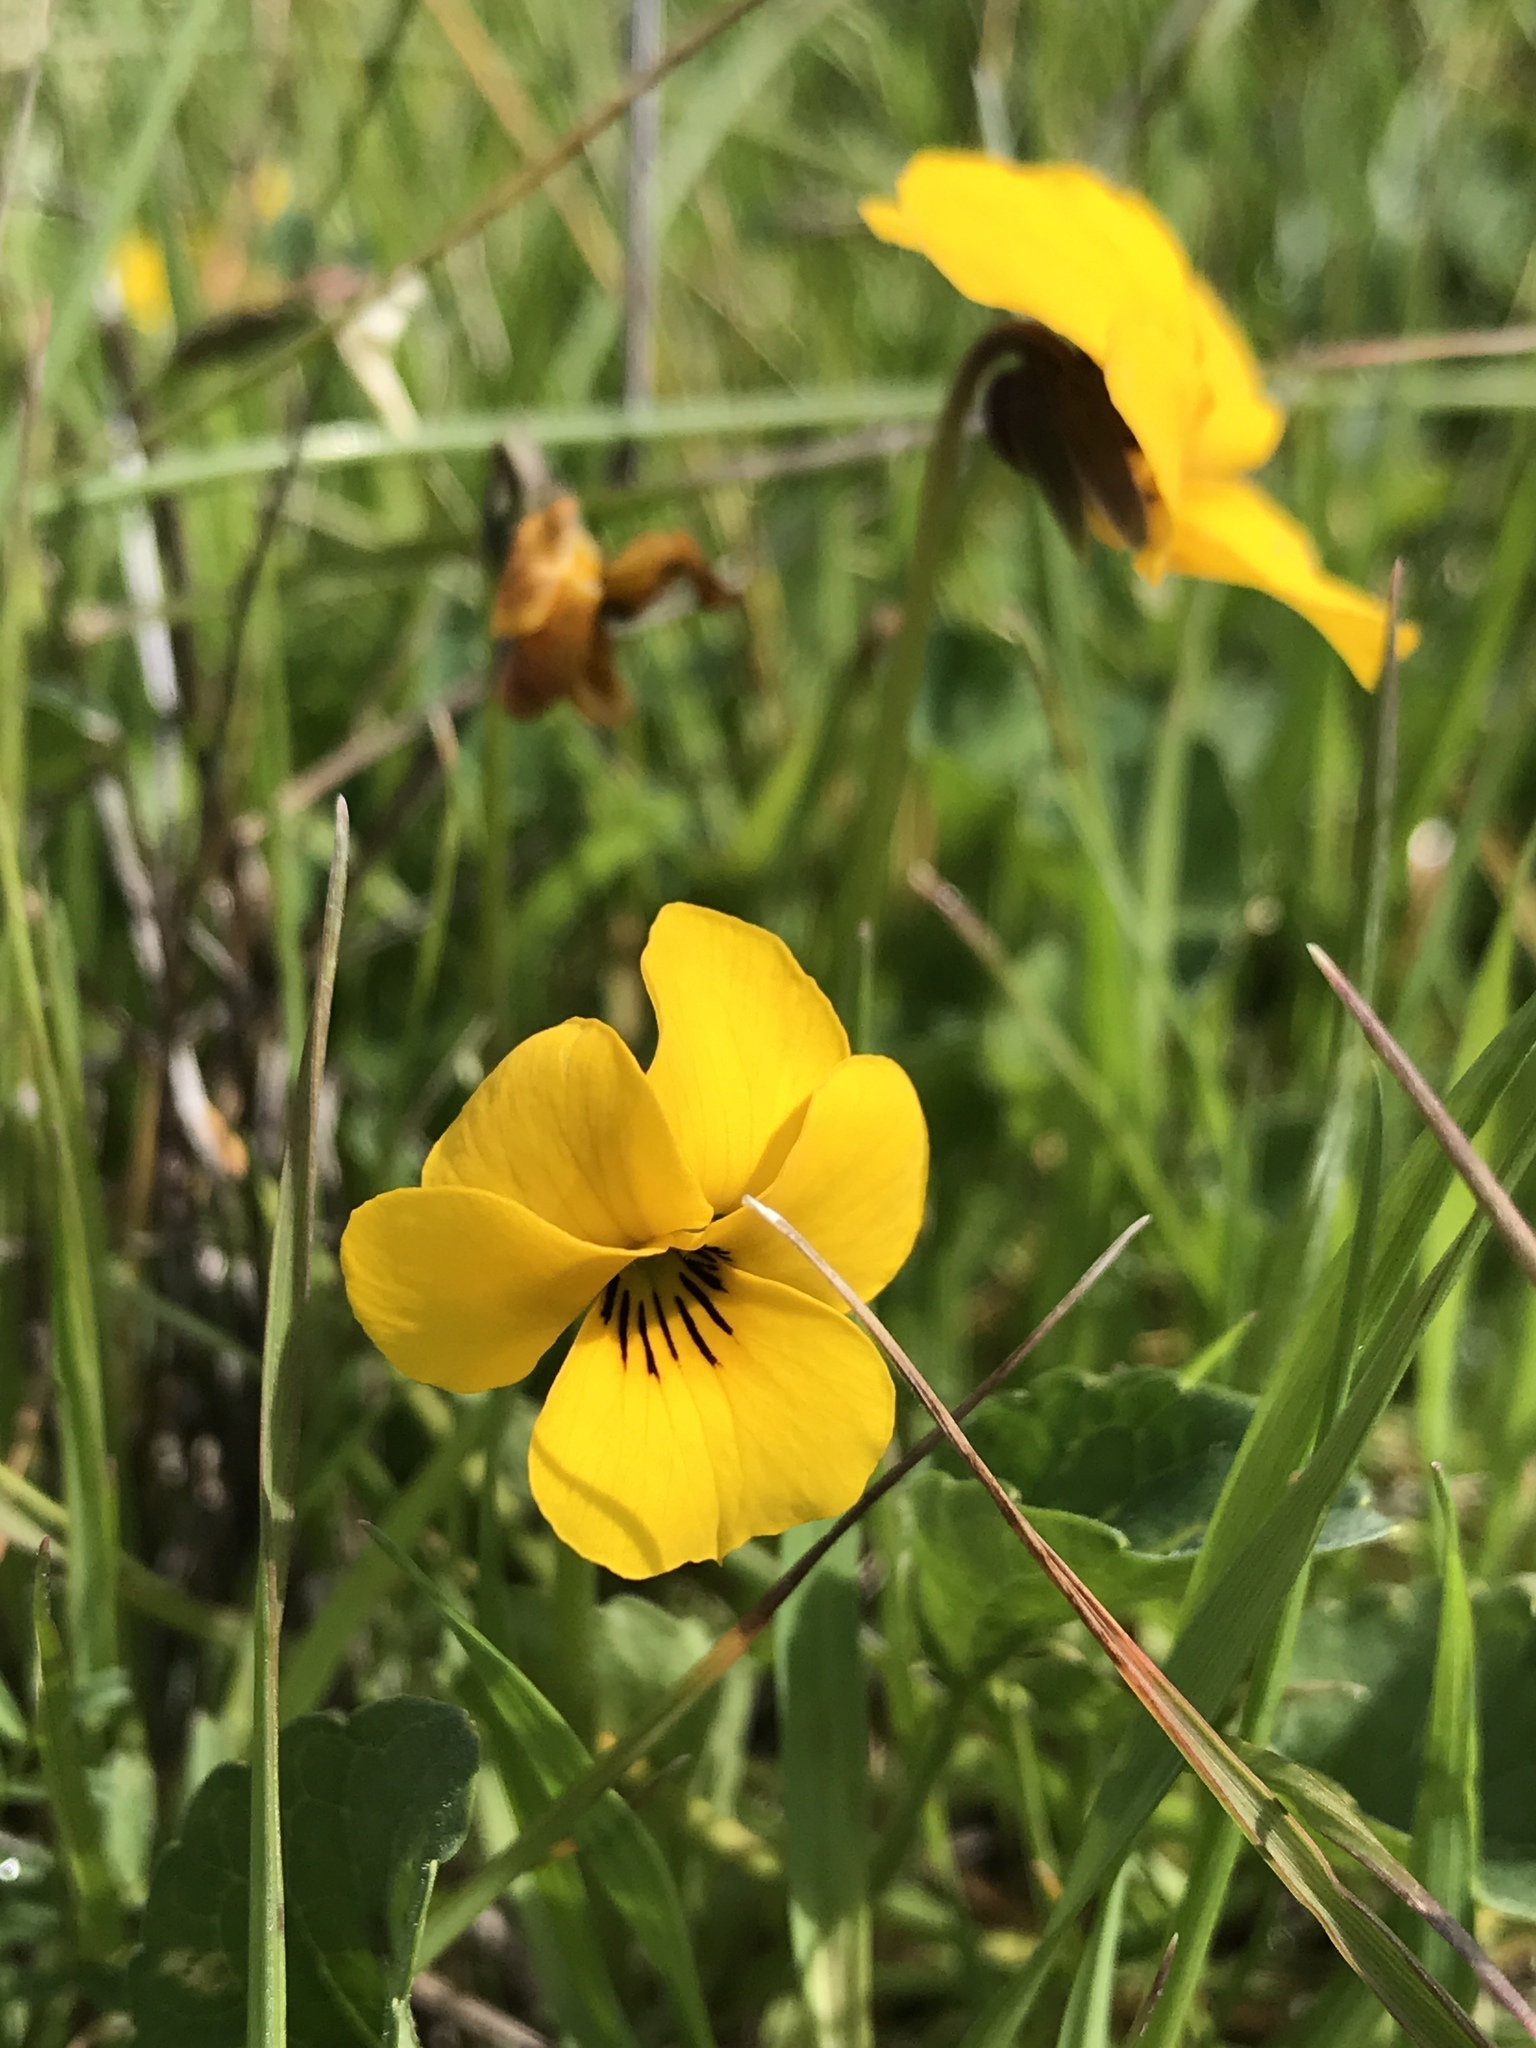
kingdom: Plantae
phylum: Tracheophyta
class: Magnoliopsida
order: Malpighiales
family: Violaceae
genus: Viola
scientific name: Viola pedunculata
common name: California golden violet
